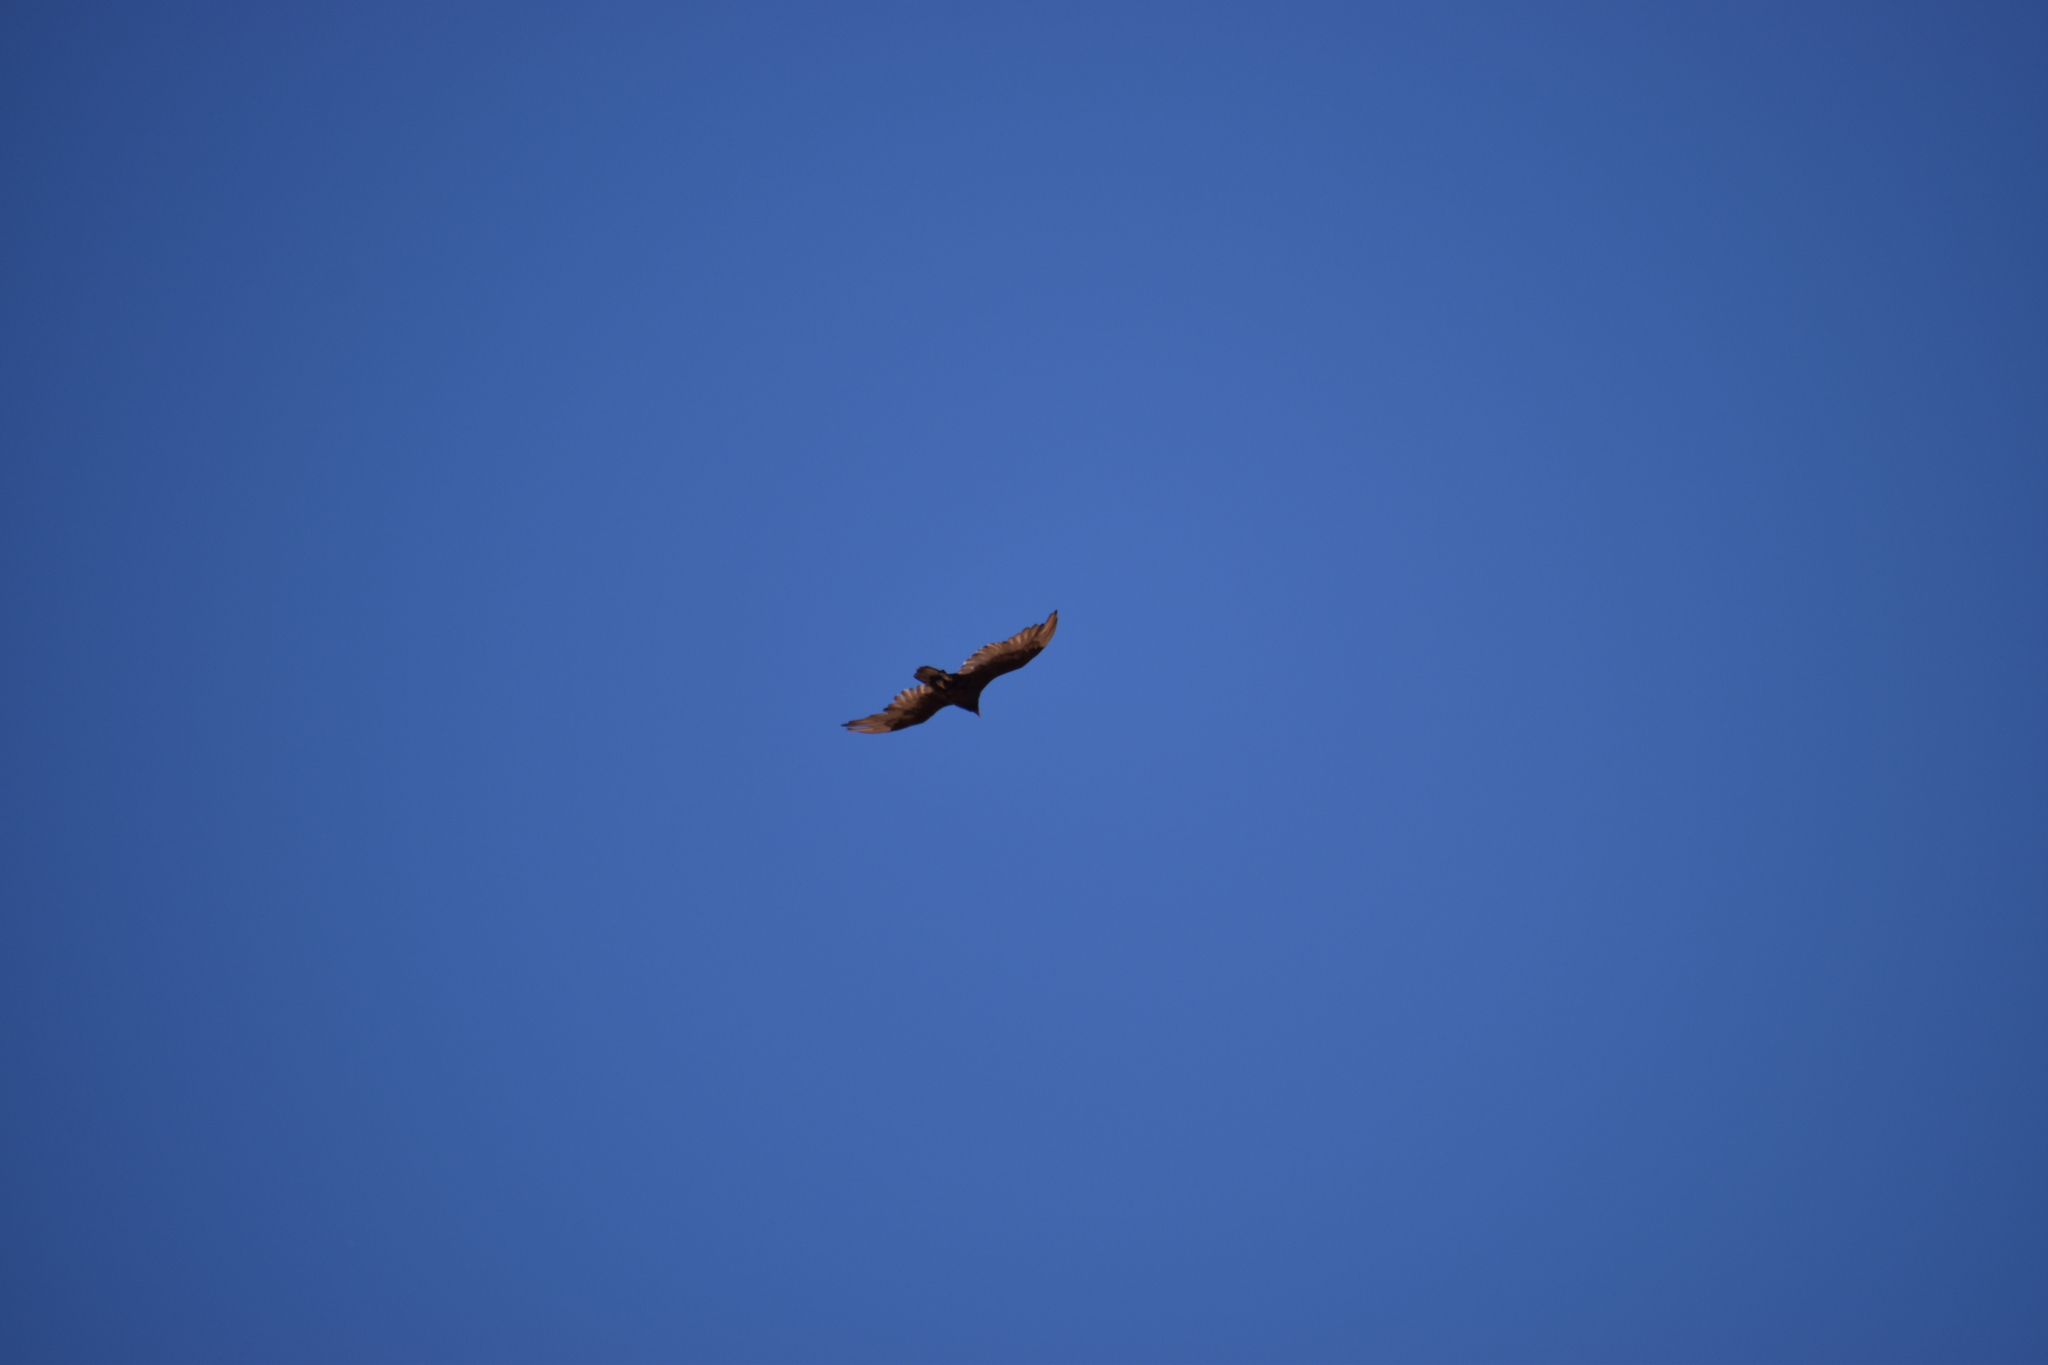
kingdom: Animalia
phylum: Chordata
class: Aves
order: Accipitriformes
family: Cathartidae
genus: Cathartes
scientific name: Cathartes aura
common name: Turkey vulture
